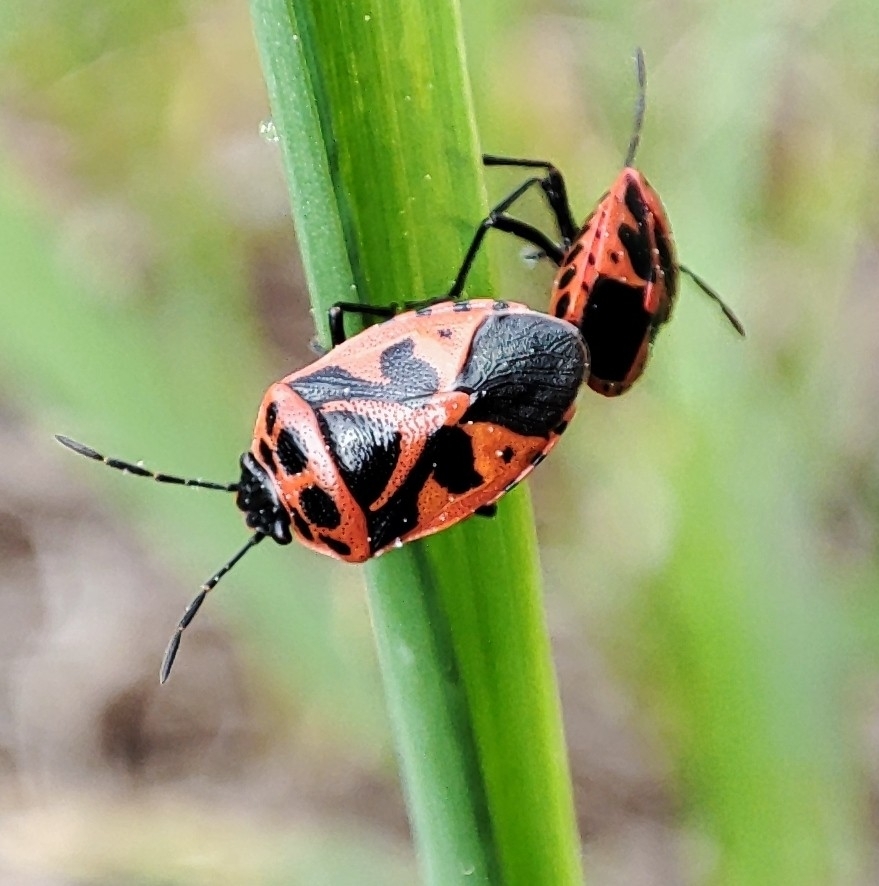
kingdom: Animalia
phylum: Arthropoda
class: Insecta
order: Hemiptera
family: Pentatomidae
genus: Eurydema
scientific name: Eurydema dominulus
